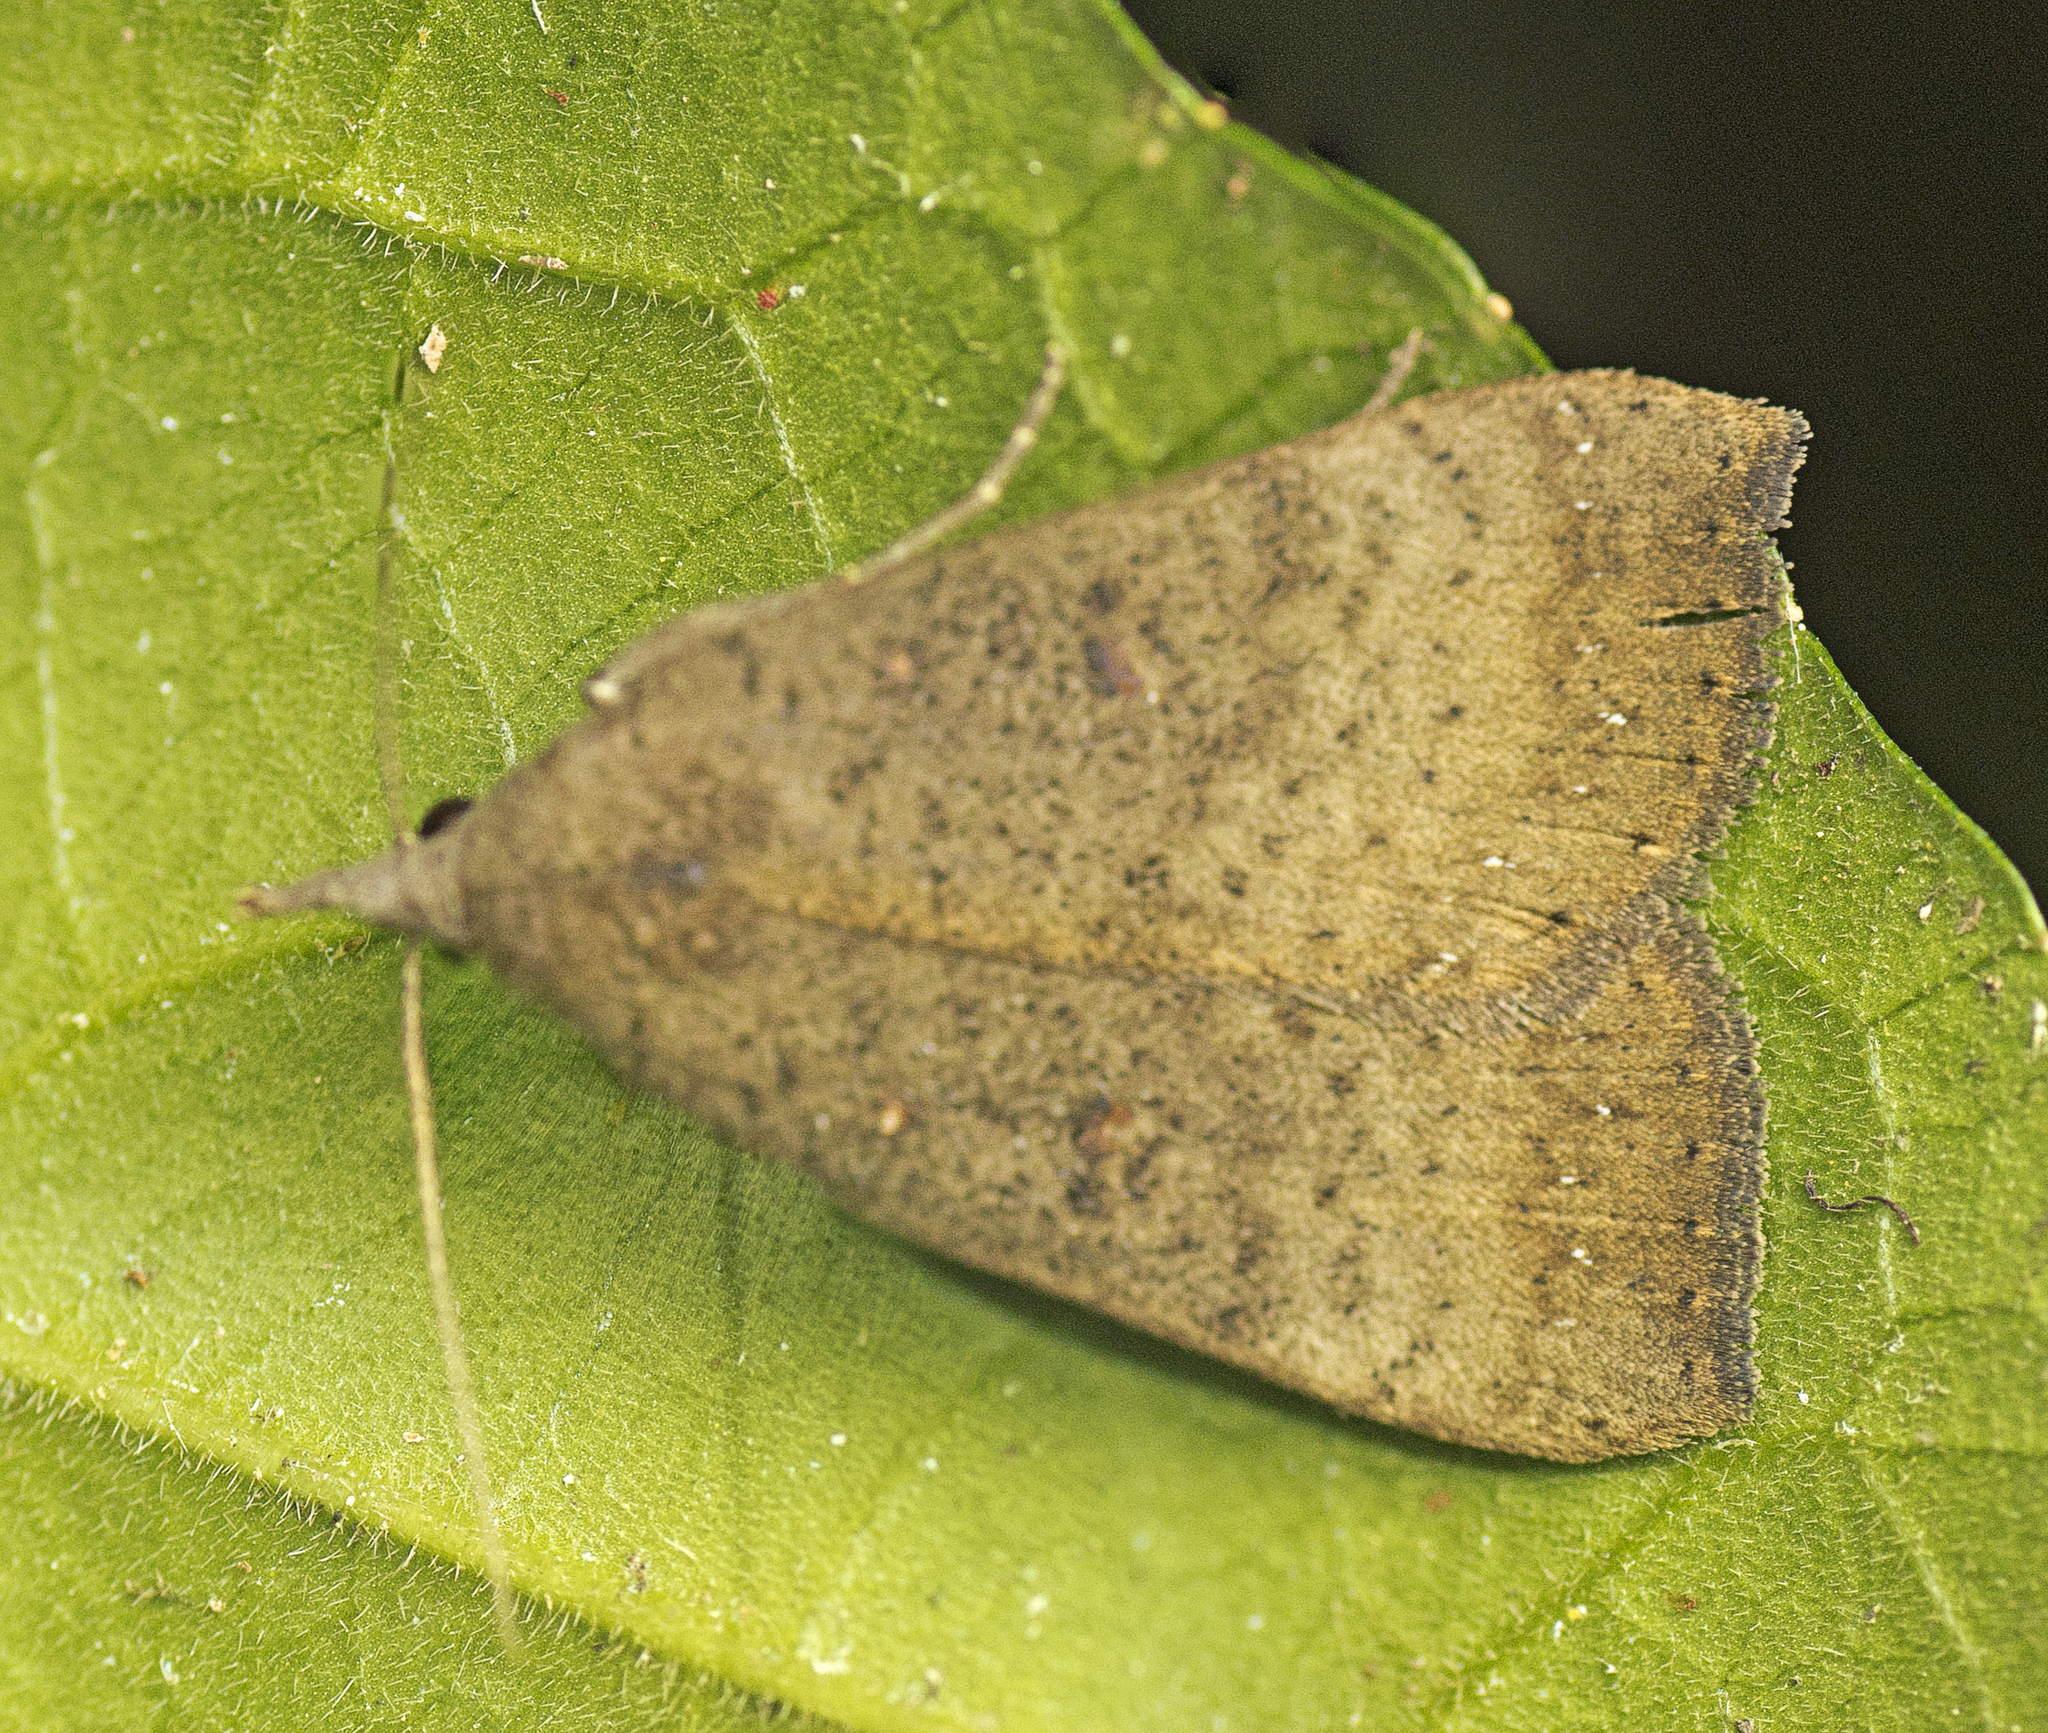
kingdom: Animalia
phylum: Arthropoda
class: Insecta
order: Lepidoptera
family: Erebidae
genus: Rhapsa
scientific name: Rhapsa suscitatalis
